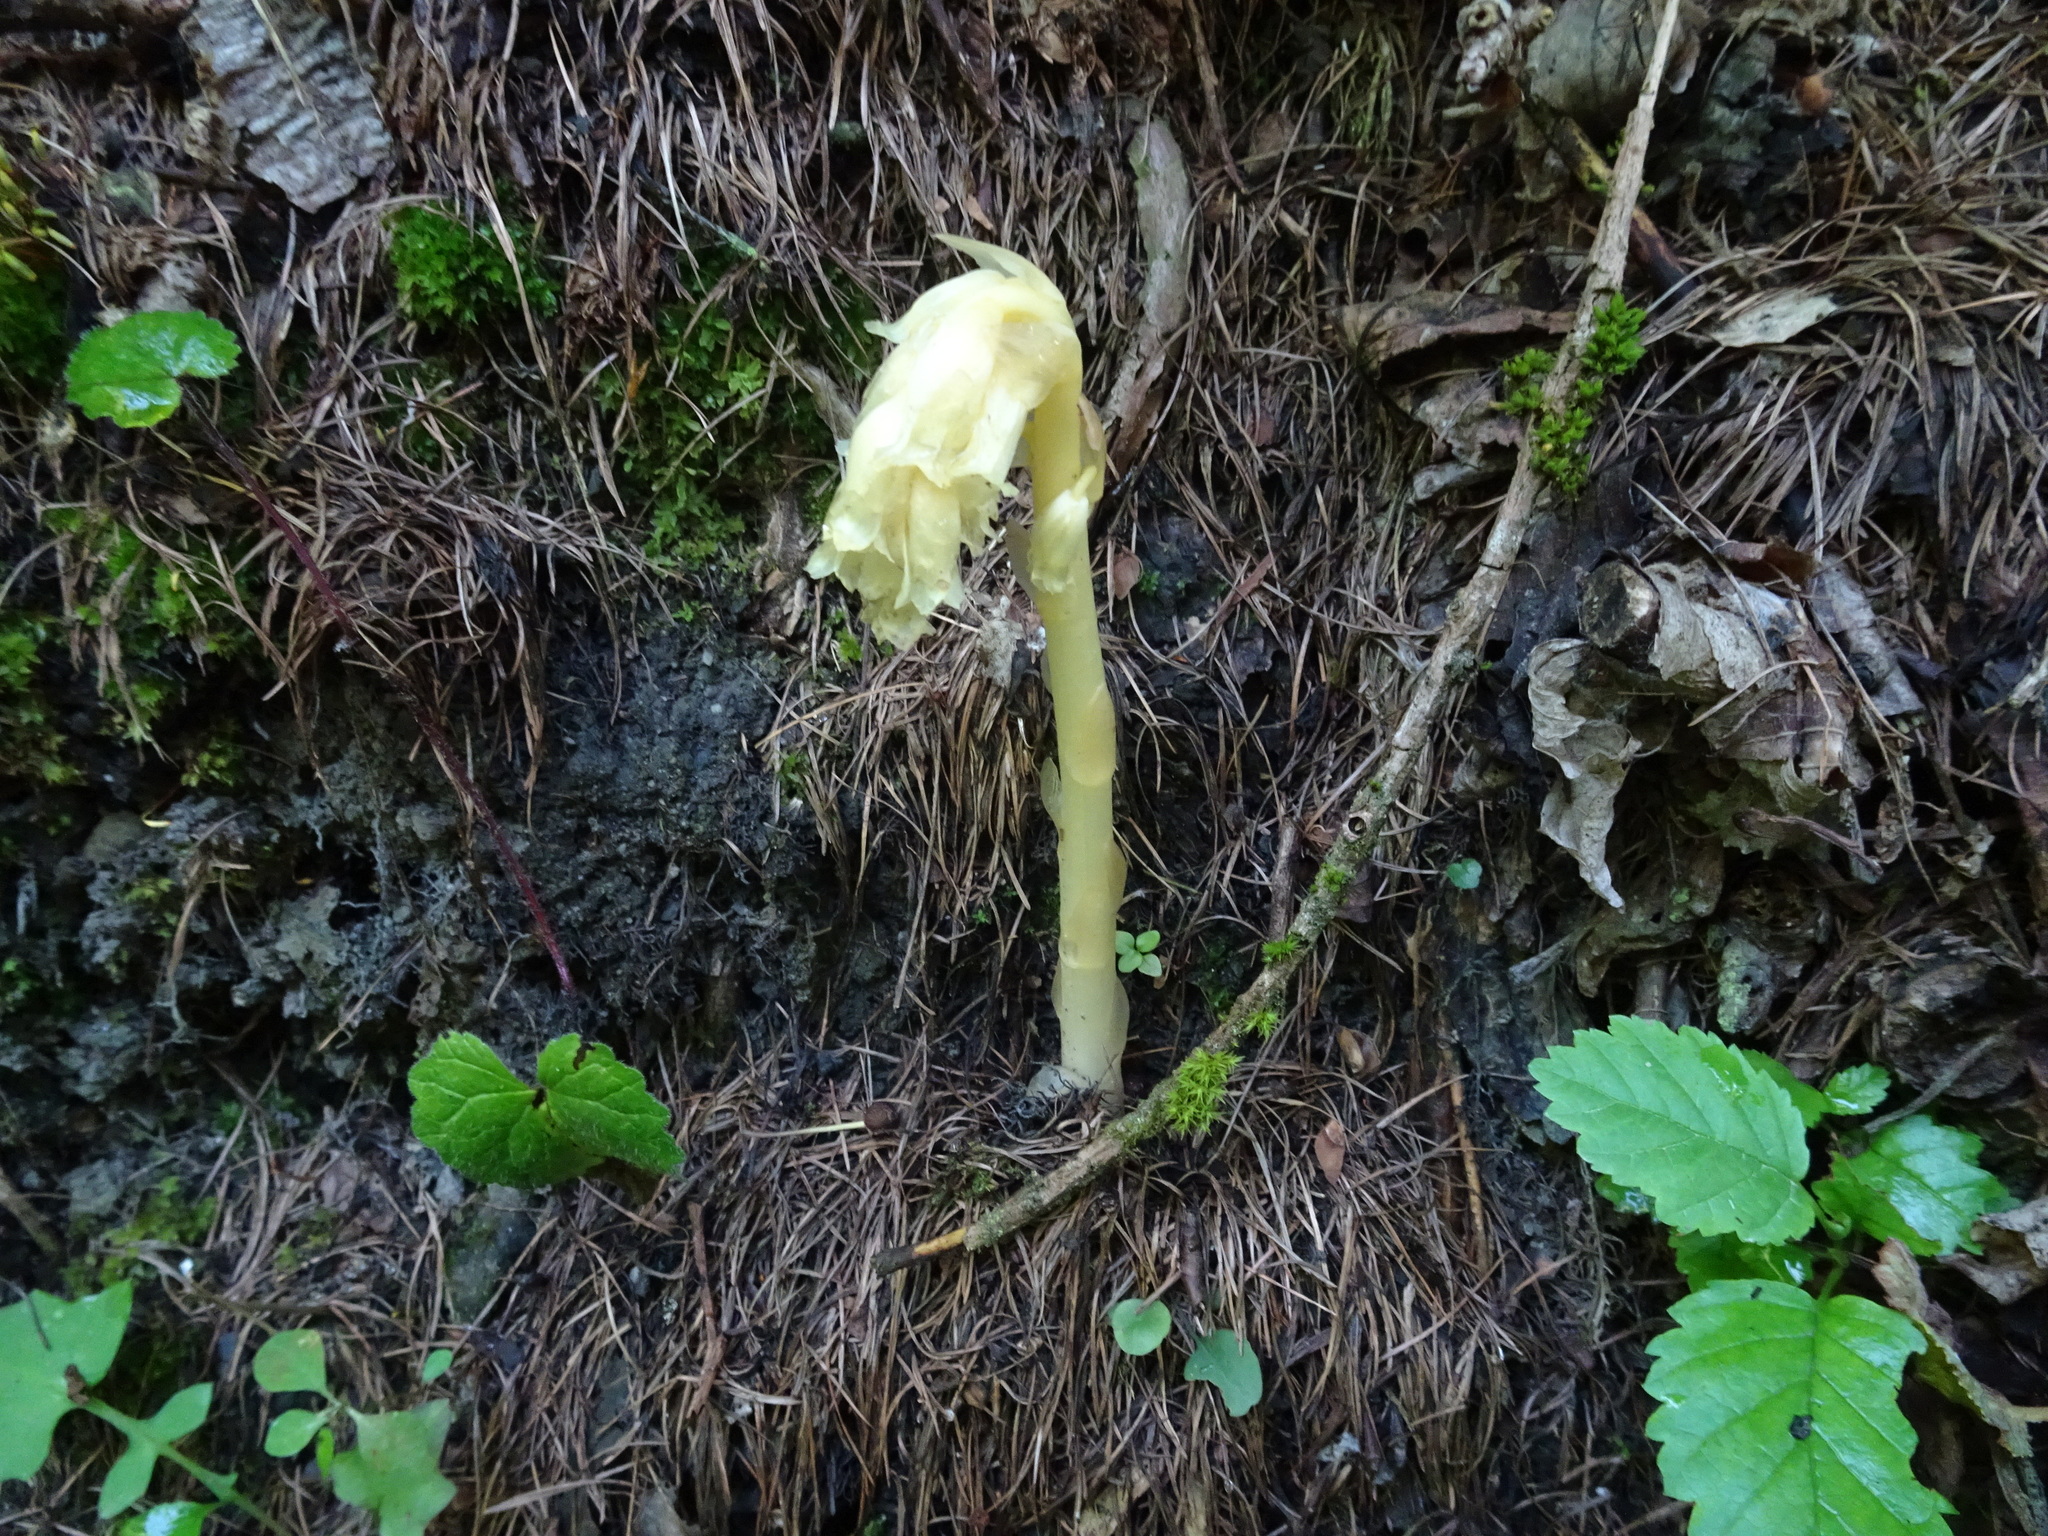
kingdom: Plantae
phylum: Tracheophyta
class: Magnoliopsida
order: Ericales
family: Ericaceae
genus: Hypopitys
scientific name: Hypopitys monotropa
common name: Yellow bird's-nest
